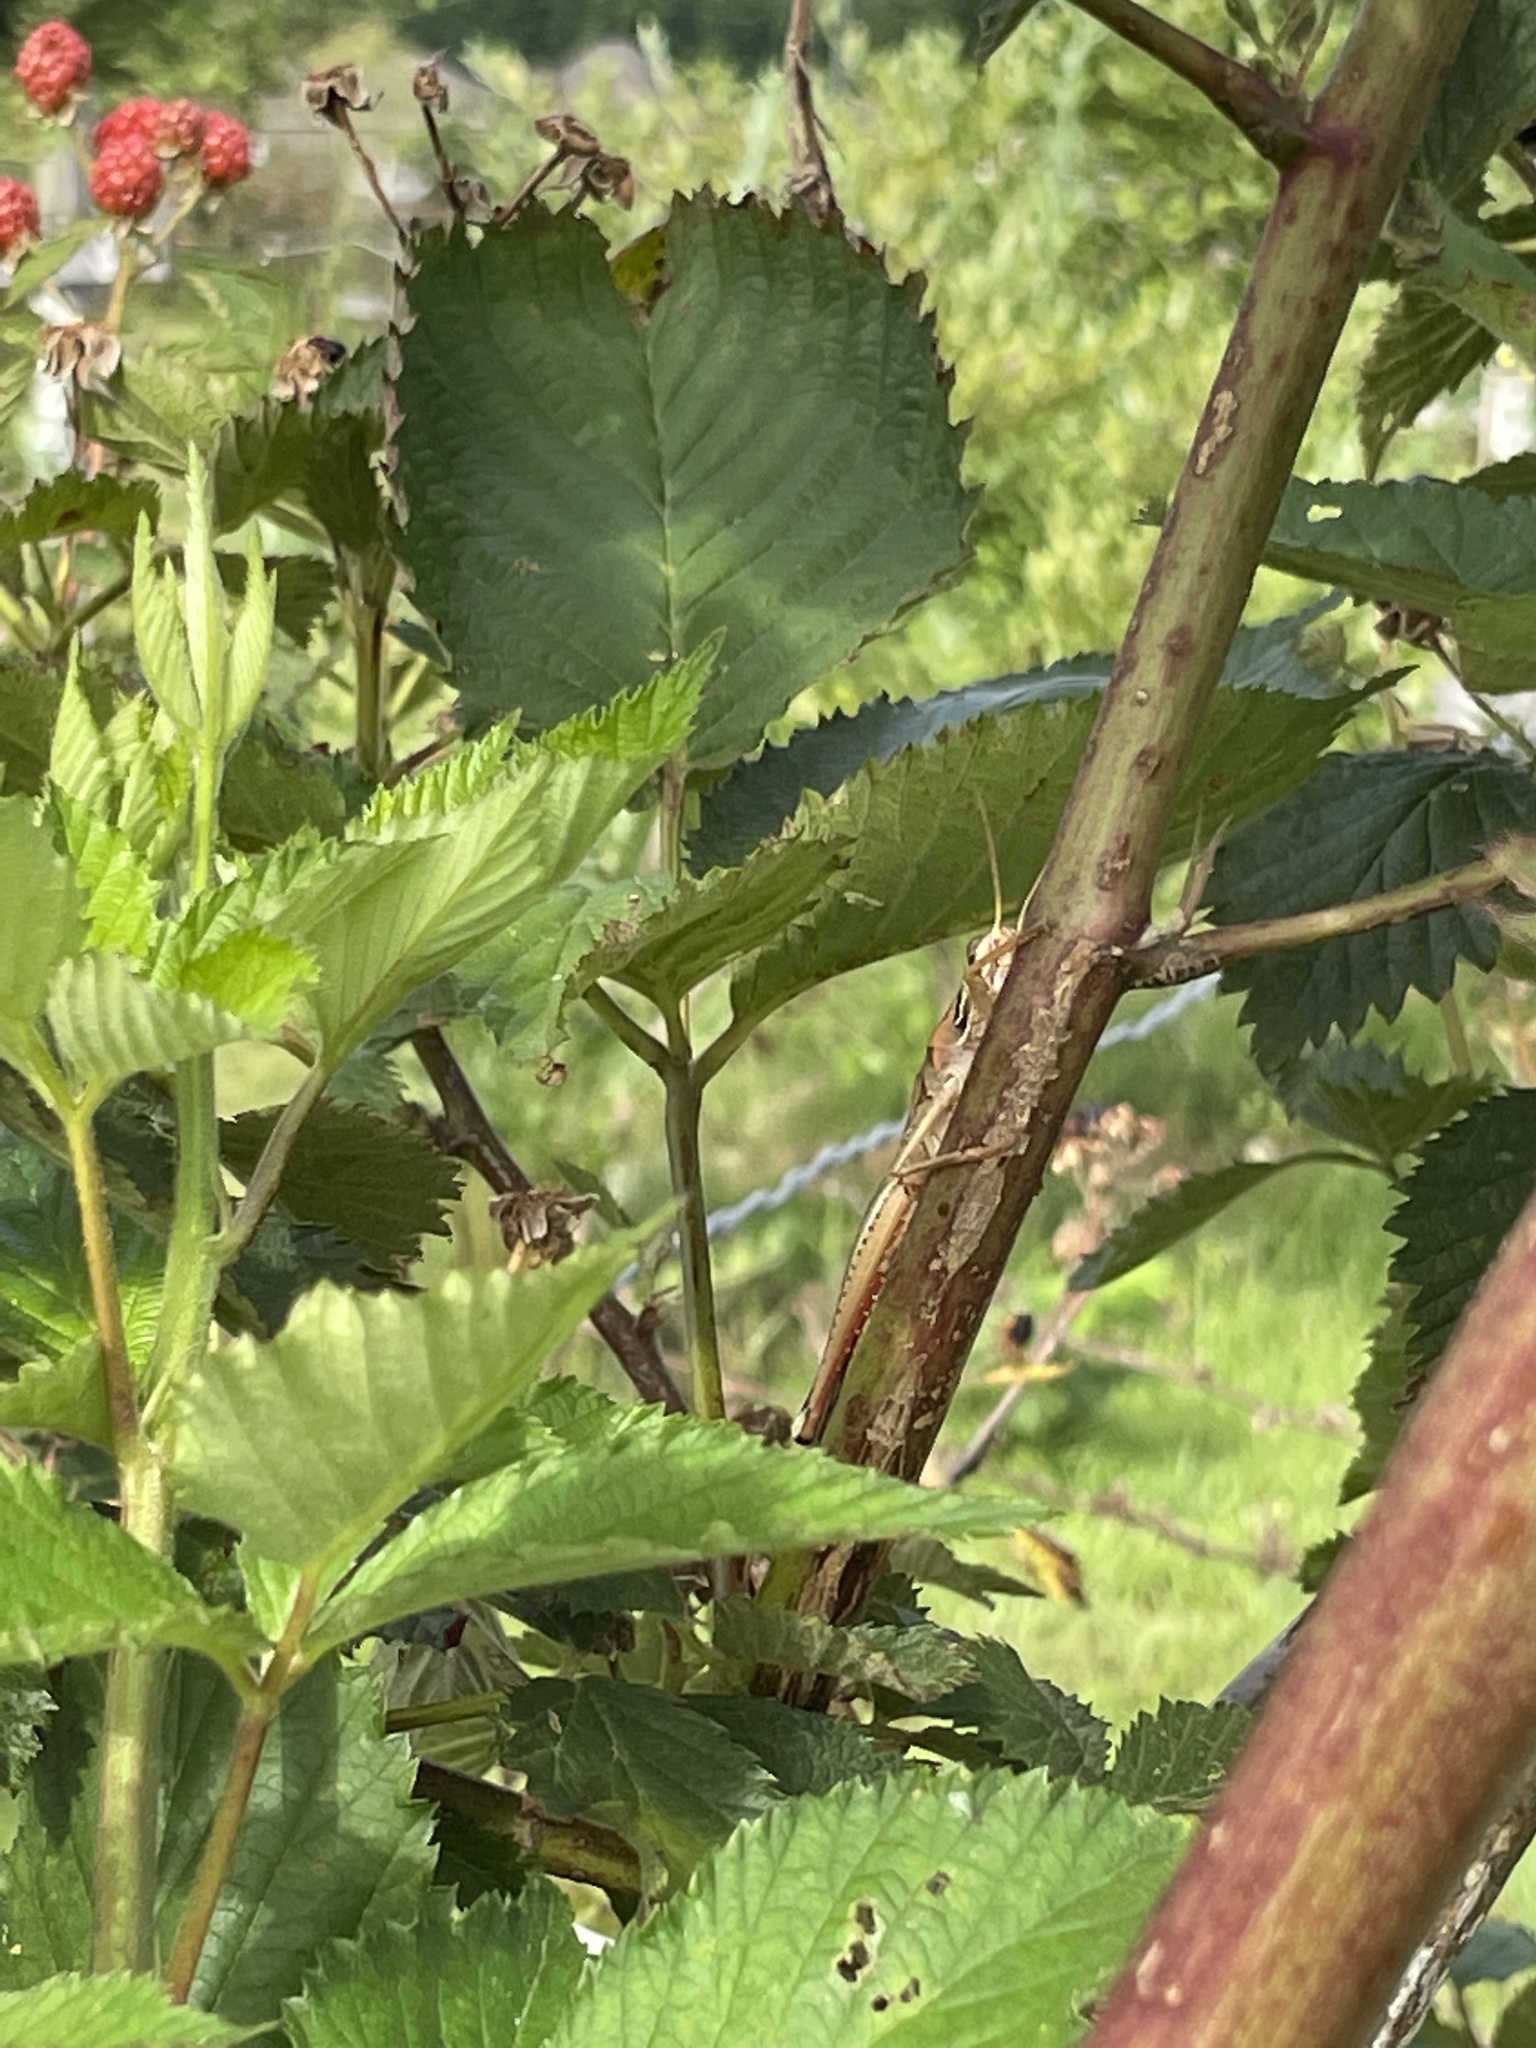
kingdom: Animalia
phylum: Arthropoda
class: Insecta
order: Orthoptera
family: Acrididae
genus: Schistocerca
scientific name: Schistocerca americana
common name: American bird locust
